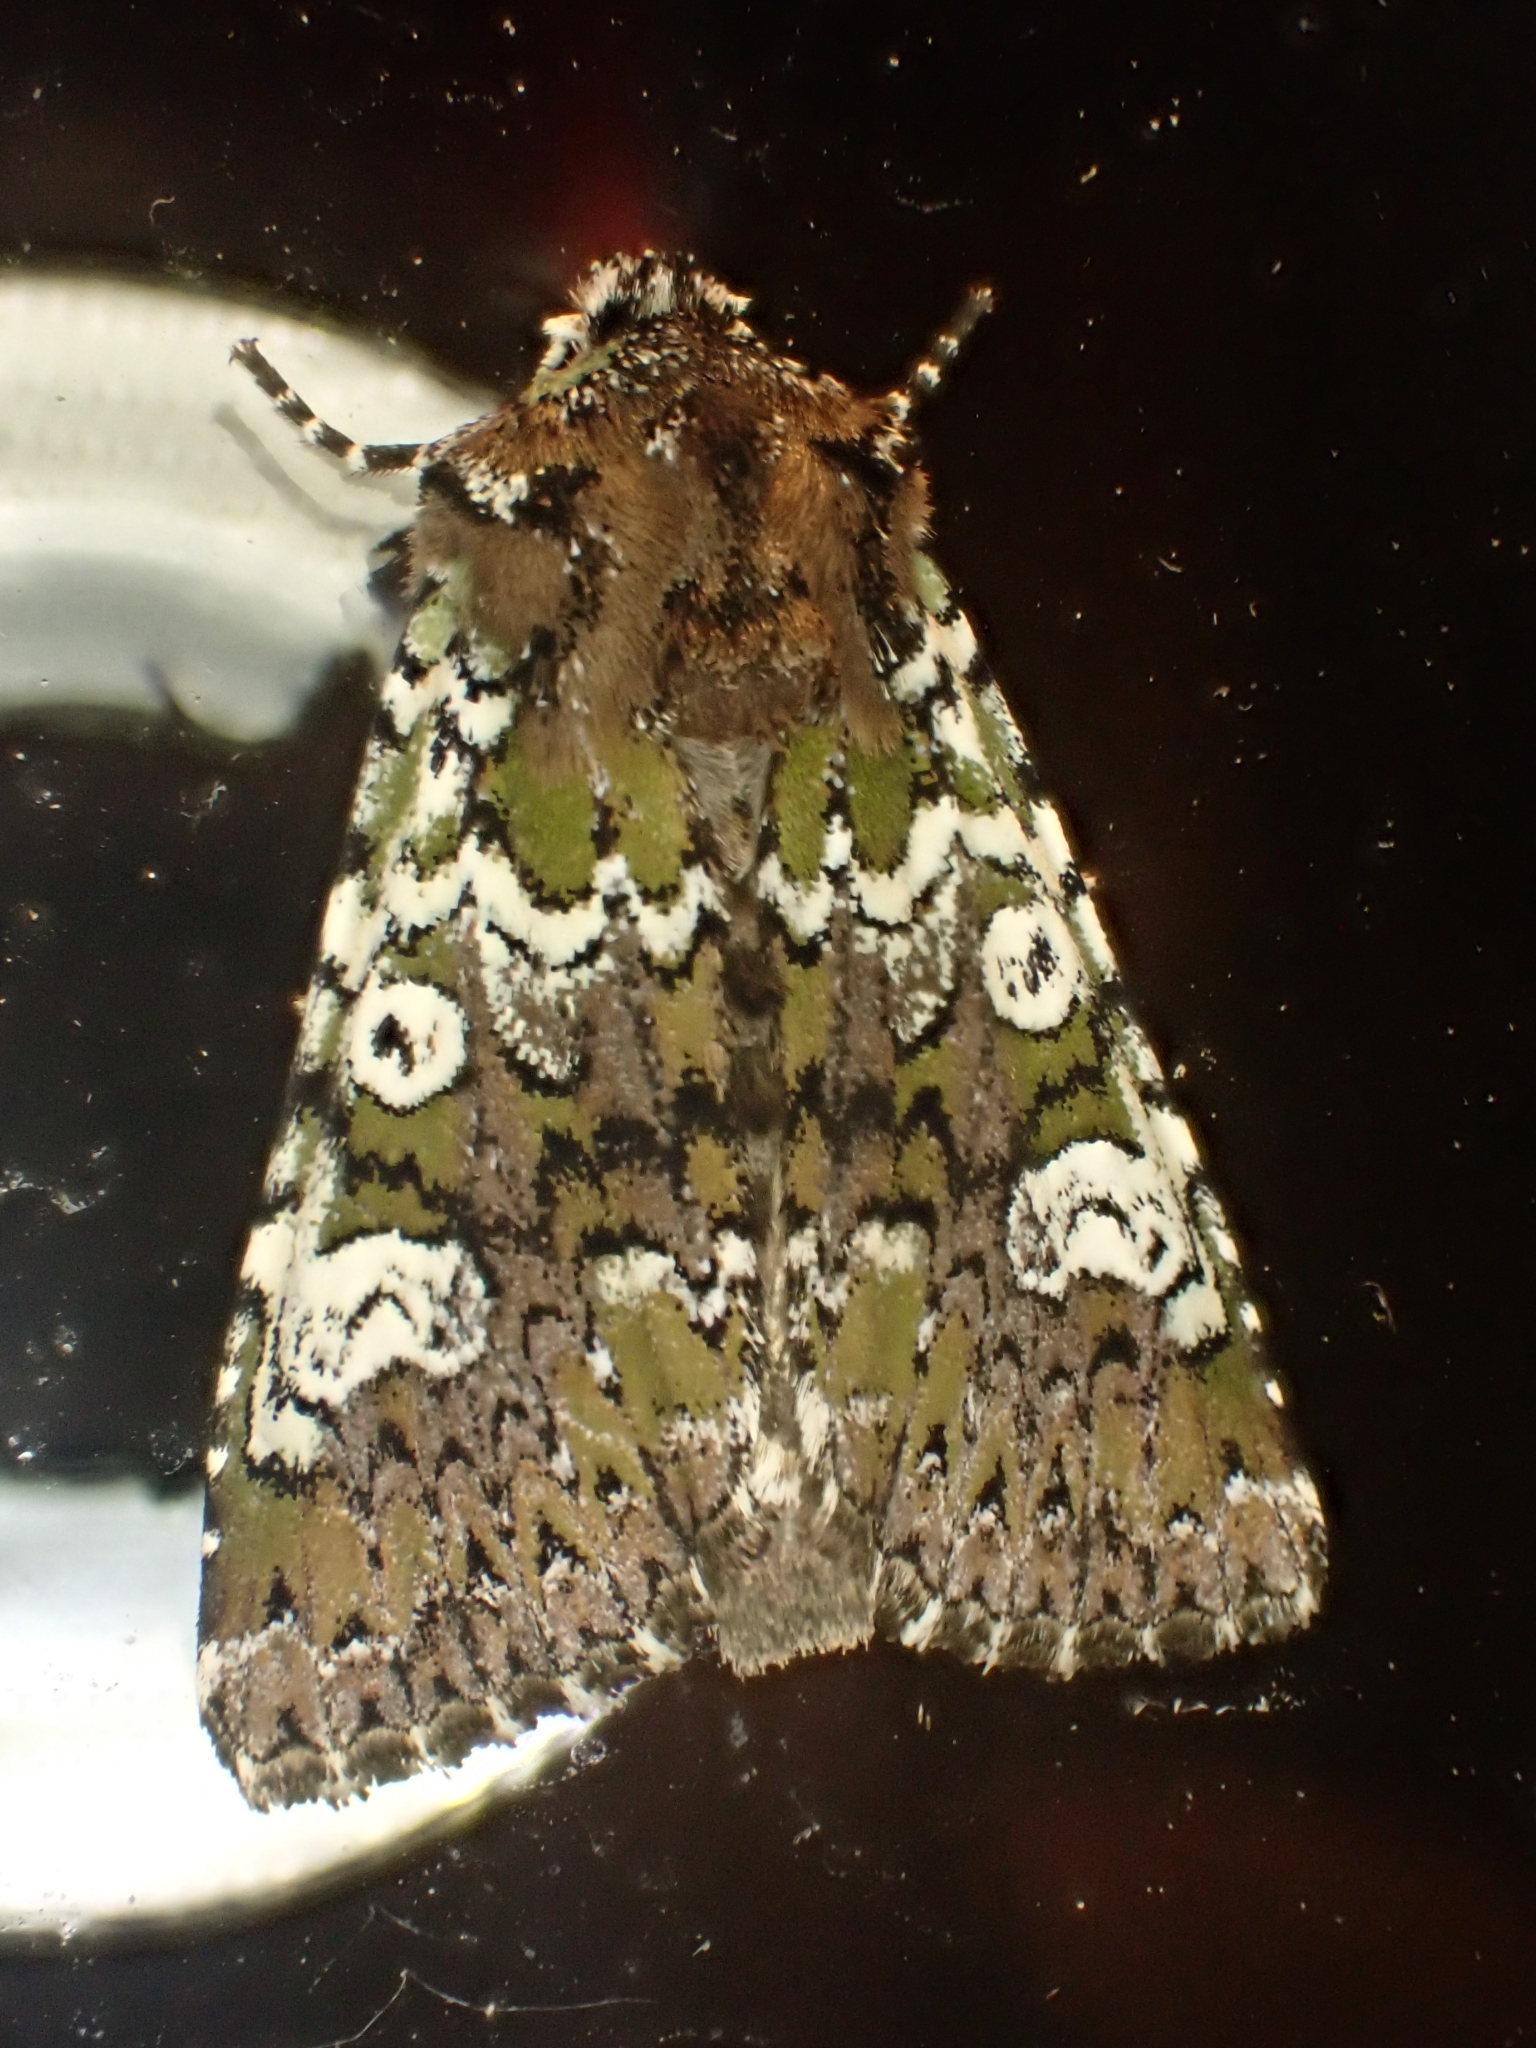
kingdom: Animalia
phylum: Arthropoda
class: Insecta
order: Lepidoptera
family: Noctuidae
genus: Crypsedra
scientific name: Crypsedra gemmea
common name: Cameo
